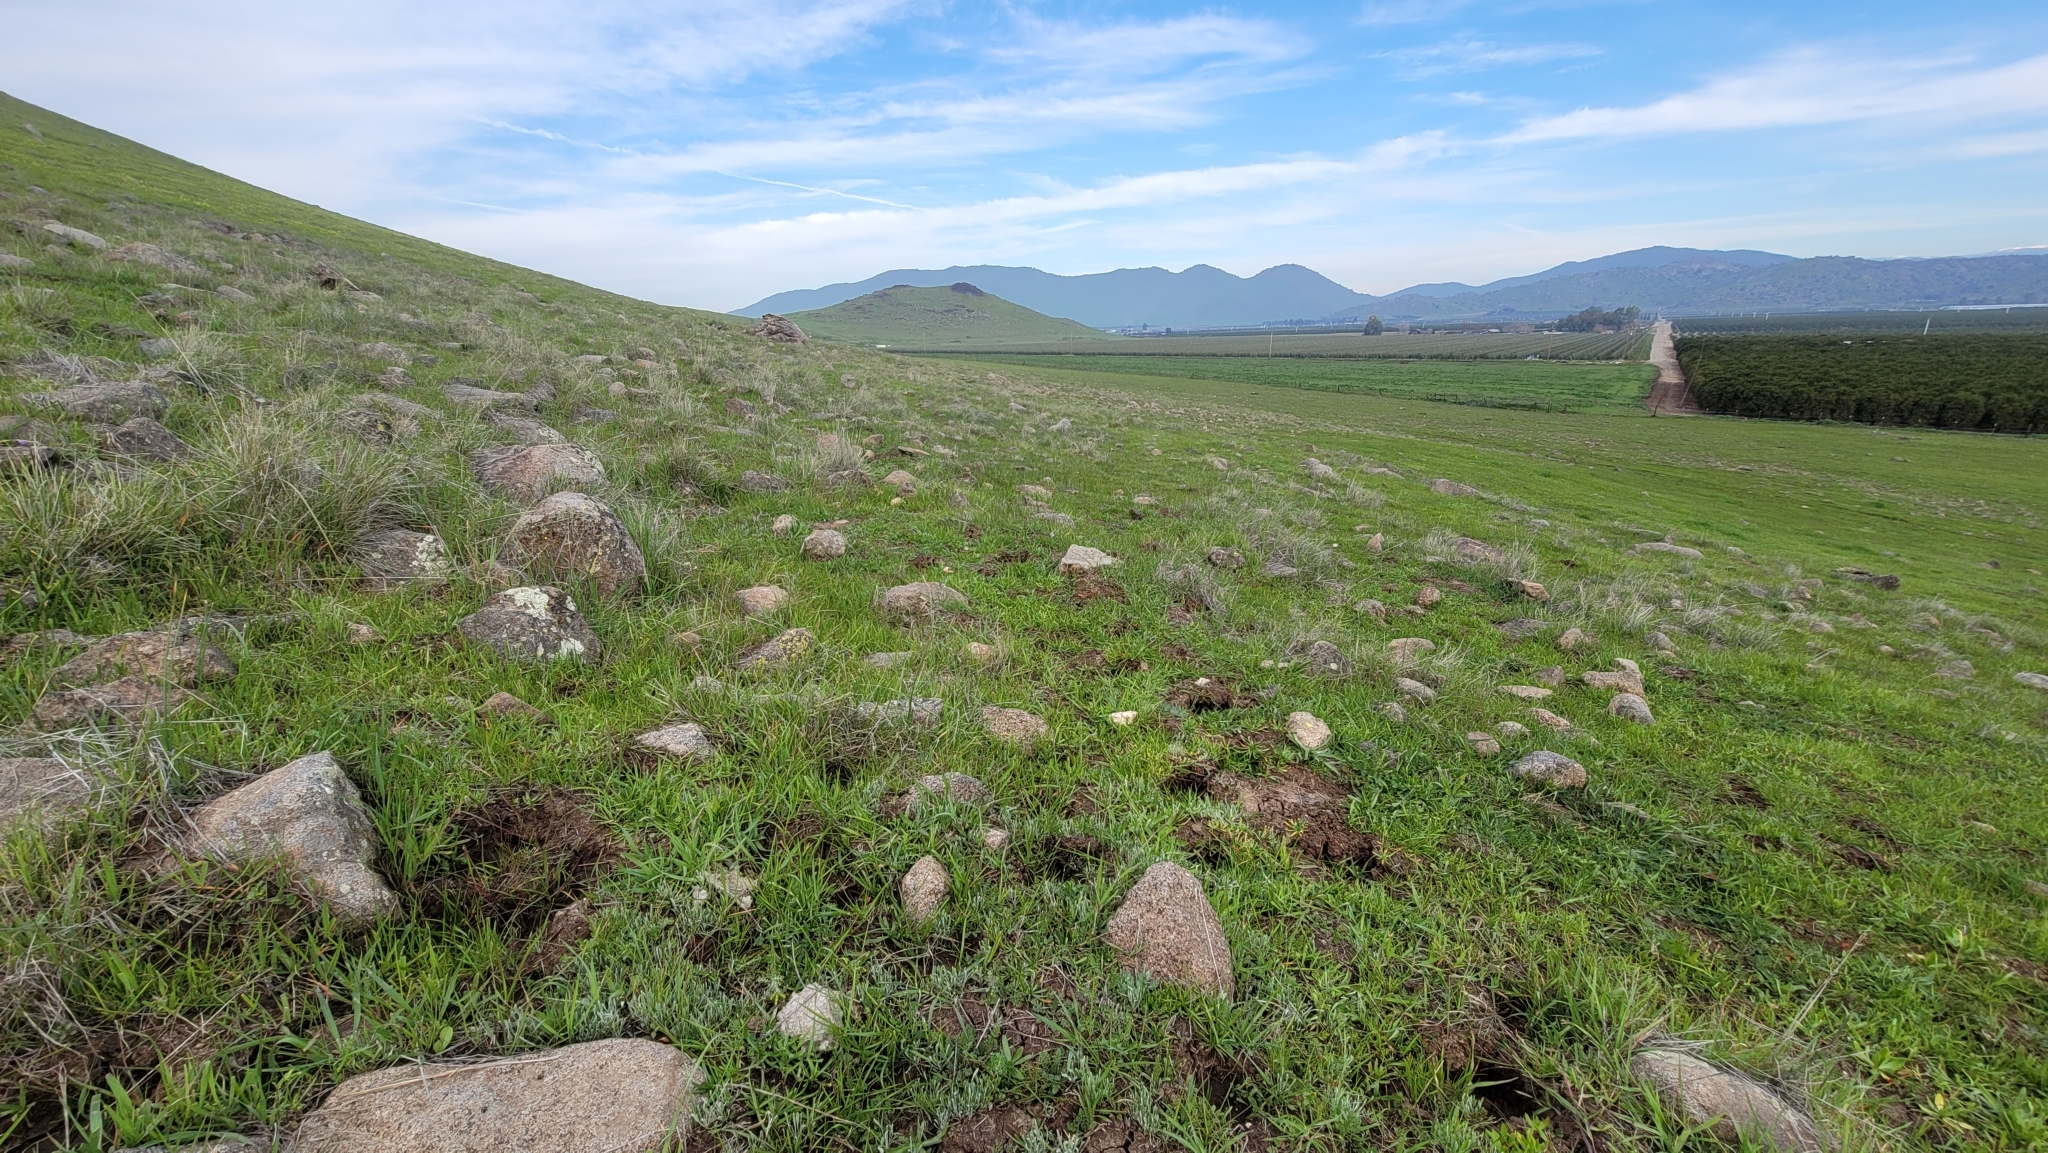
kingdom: Plantae
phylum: Tracheophyta
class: Magnoliopsida
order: Asterales
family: Asteraceae
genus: Hesperevax
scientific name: Hesperevax caulescens
